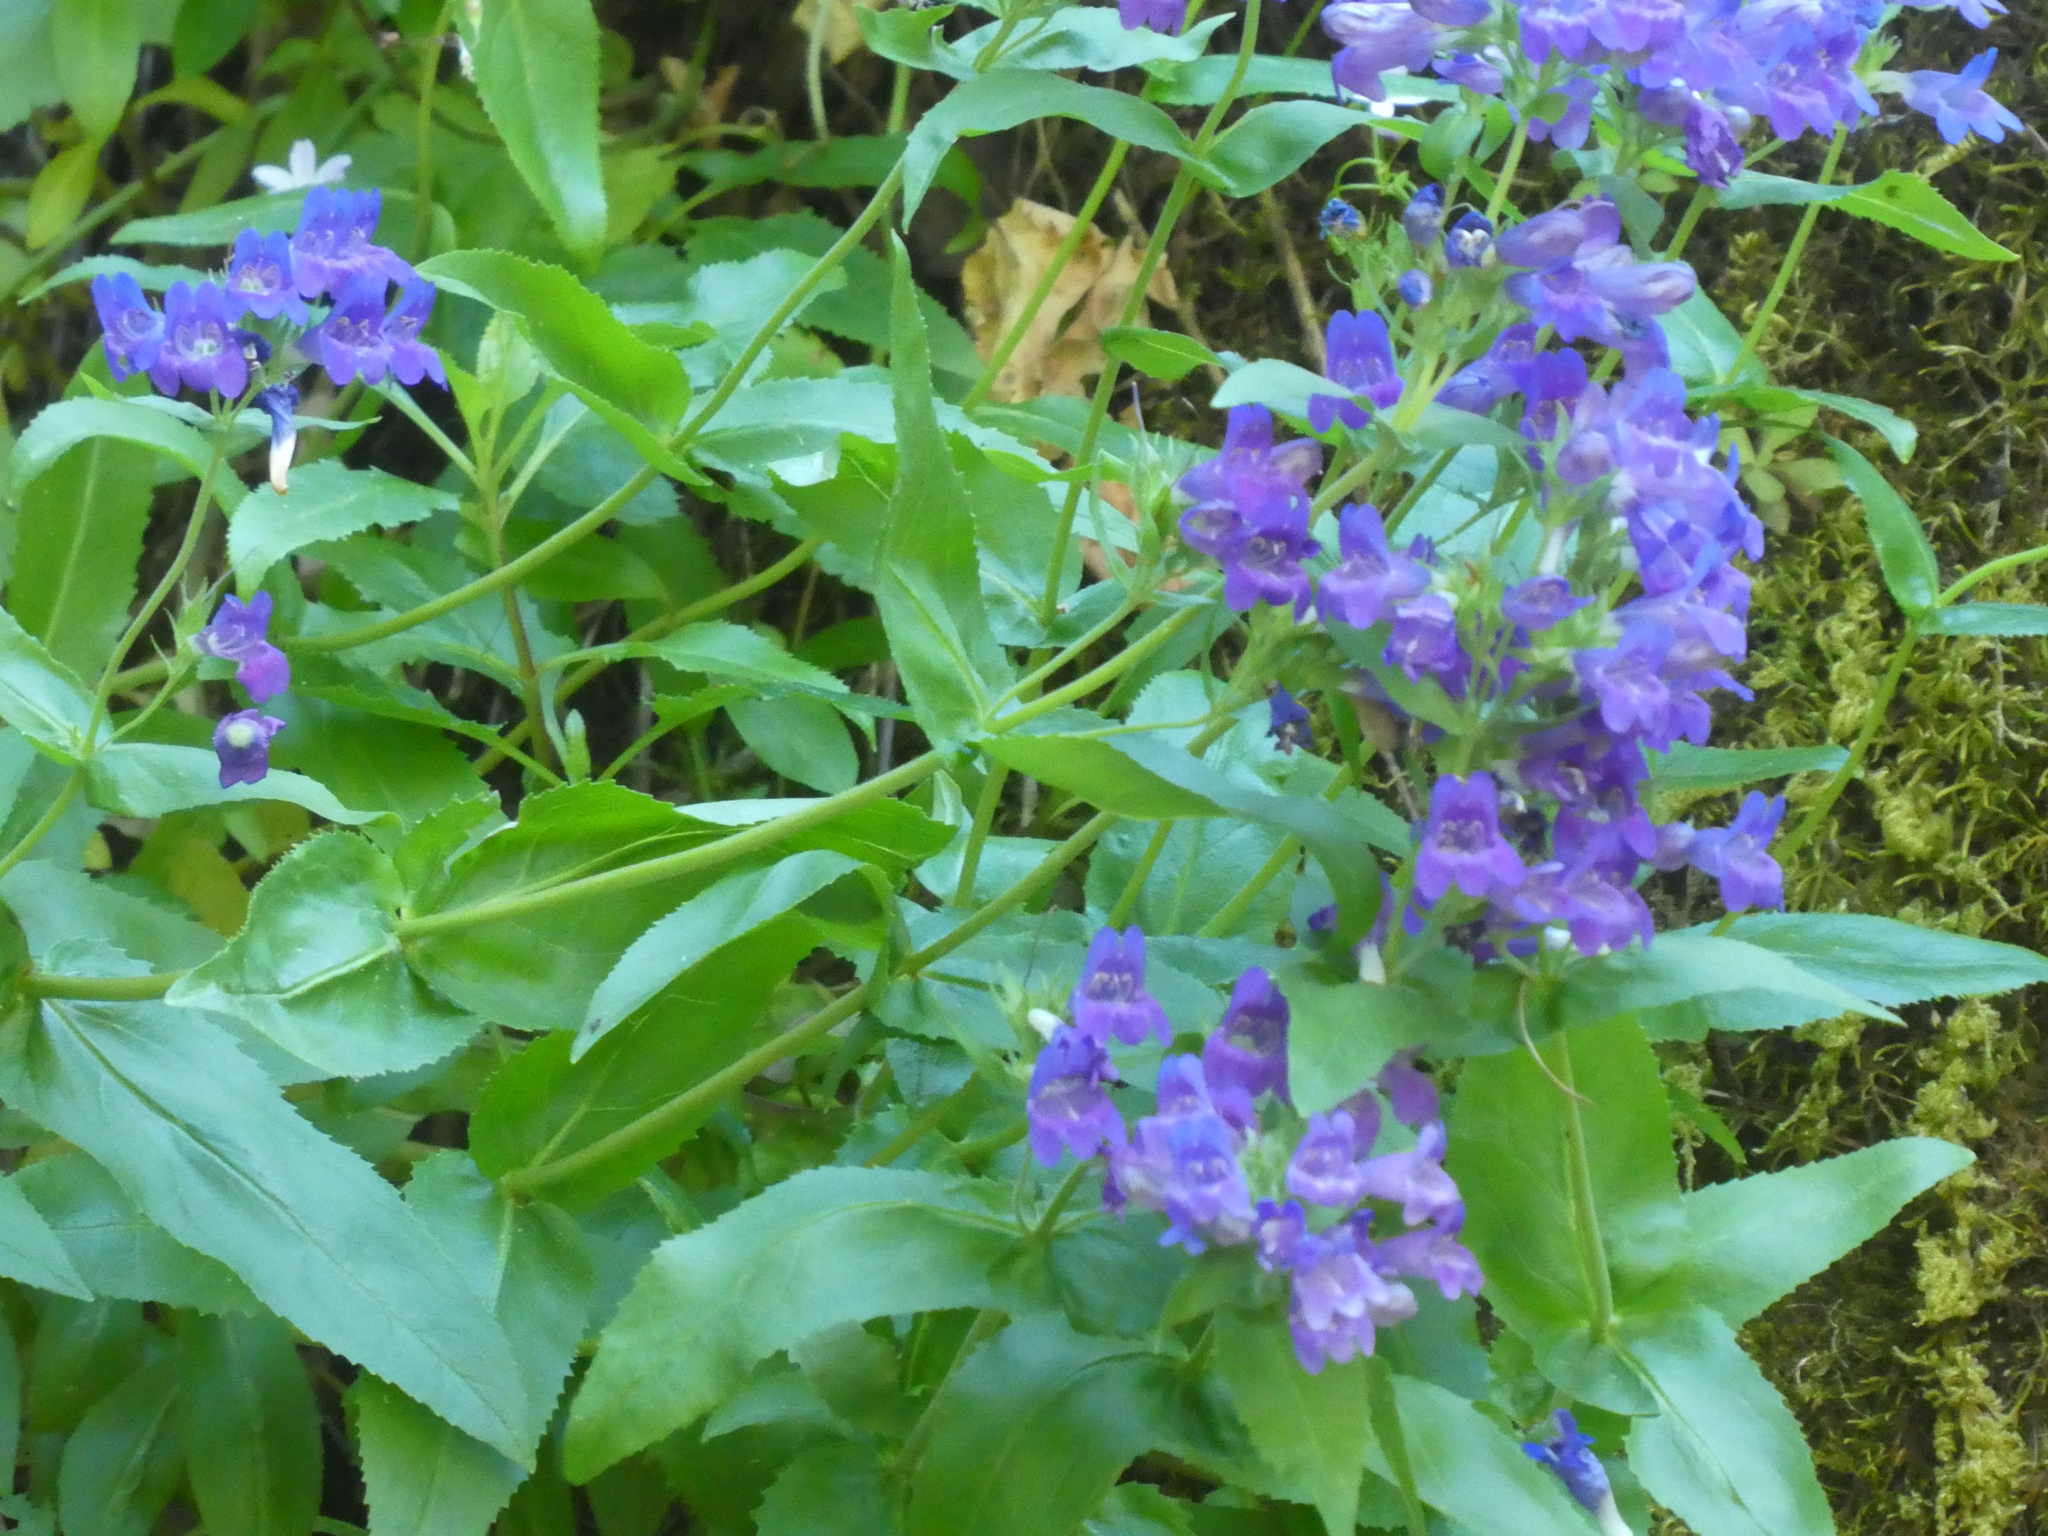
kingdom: Plantae
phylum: Tracheophyta
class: Magnoliopsida
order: Lamiales
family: Plantaginaceae
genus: Penstemon
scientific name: Penstemon serrulatus
